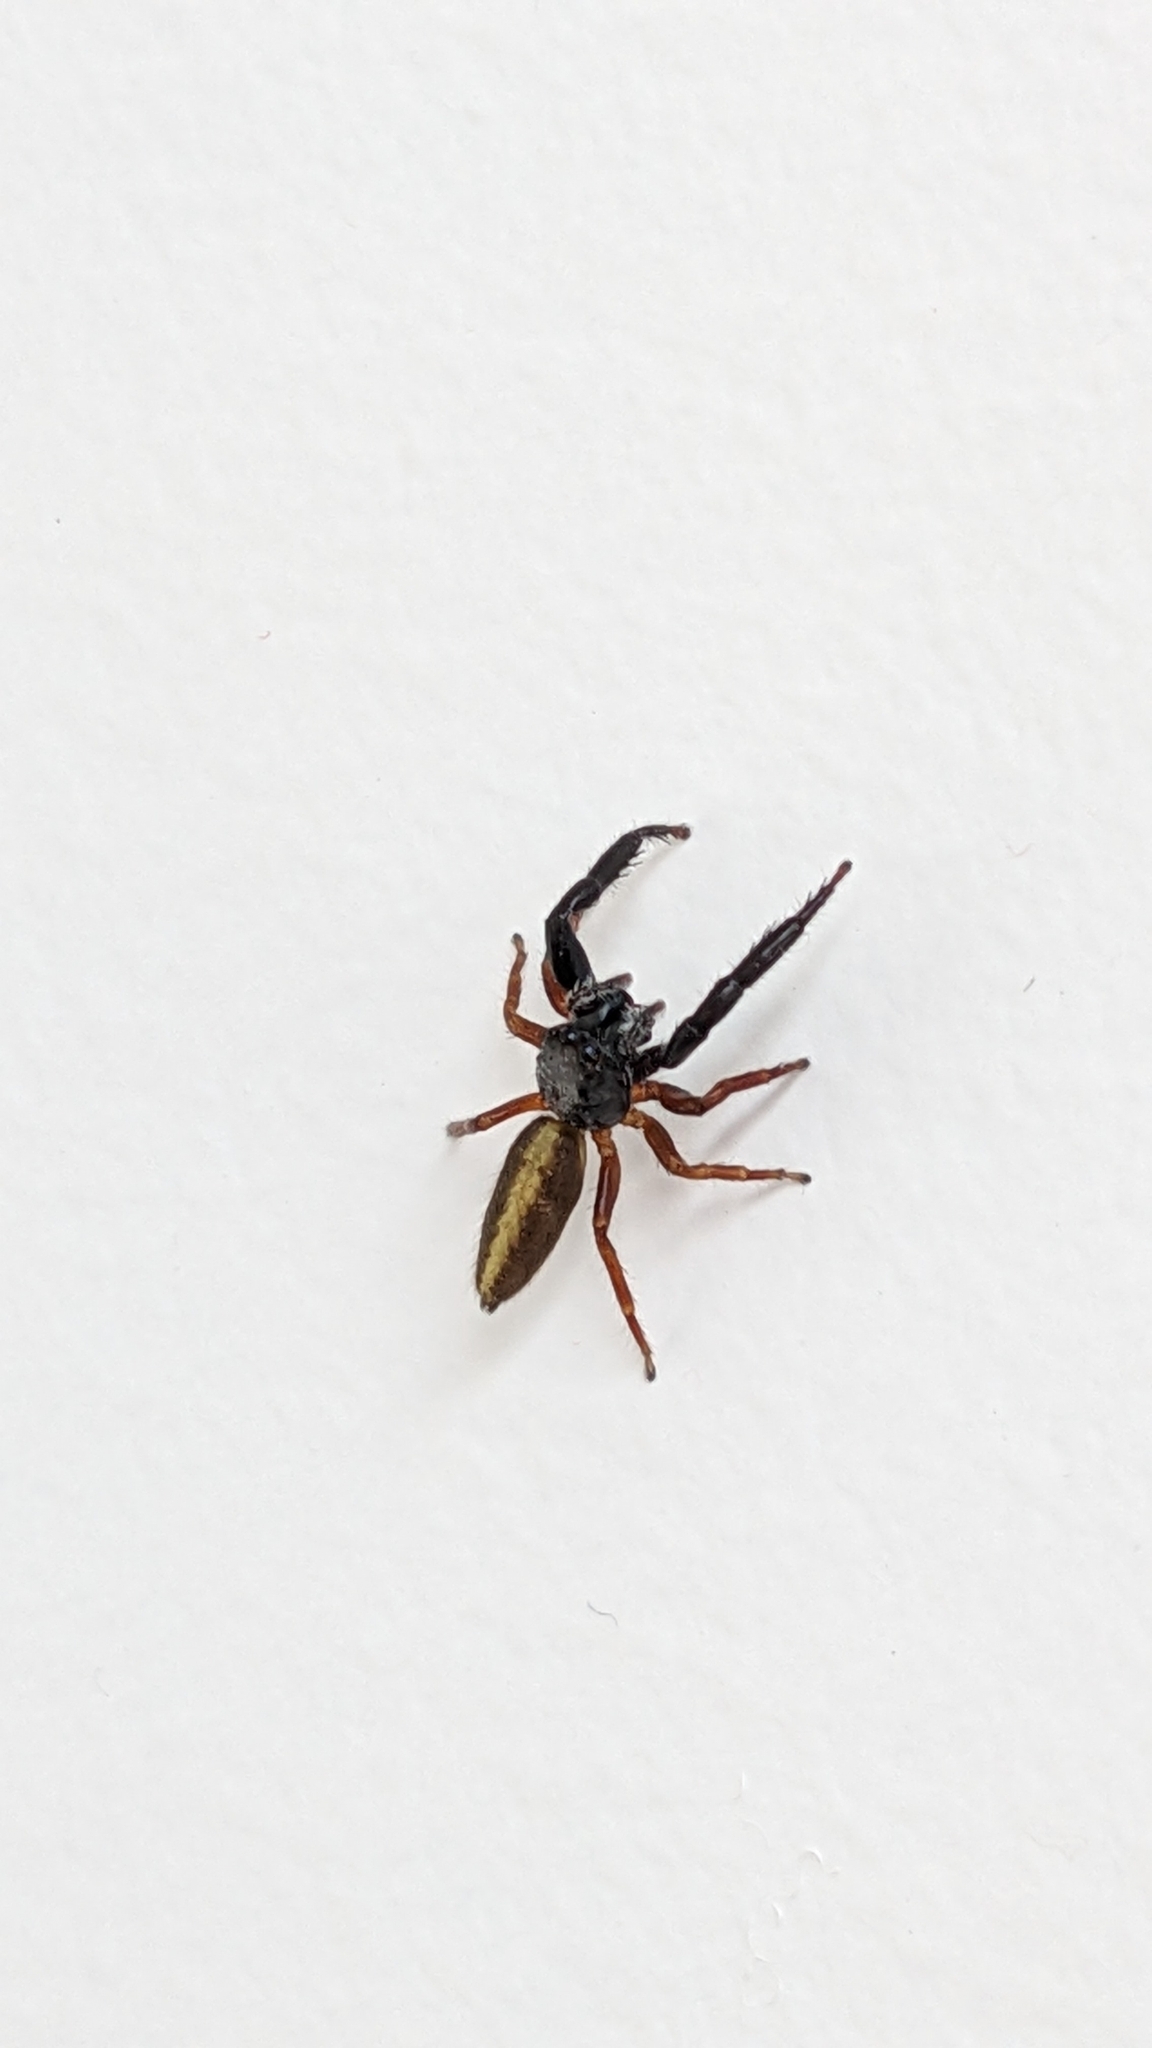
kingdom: Animalia
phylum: Arthropoda
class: Arachnida
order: Araneae
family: Salticidae
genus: Trite
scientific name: Trite planiceps
